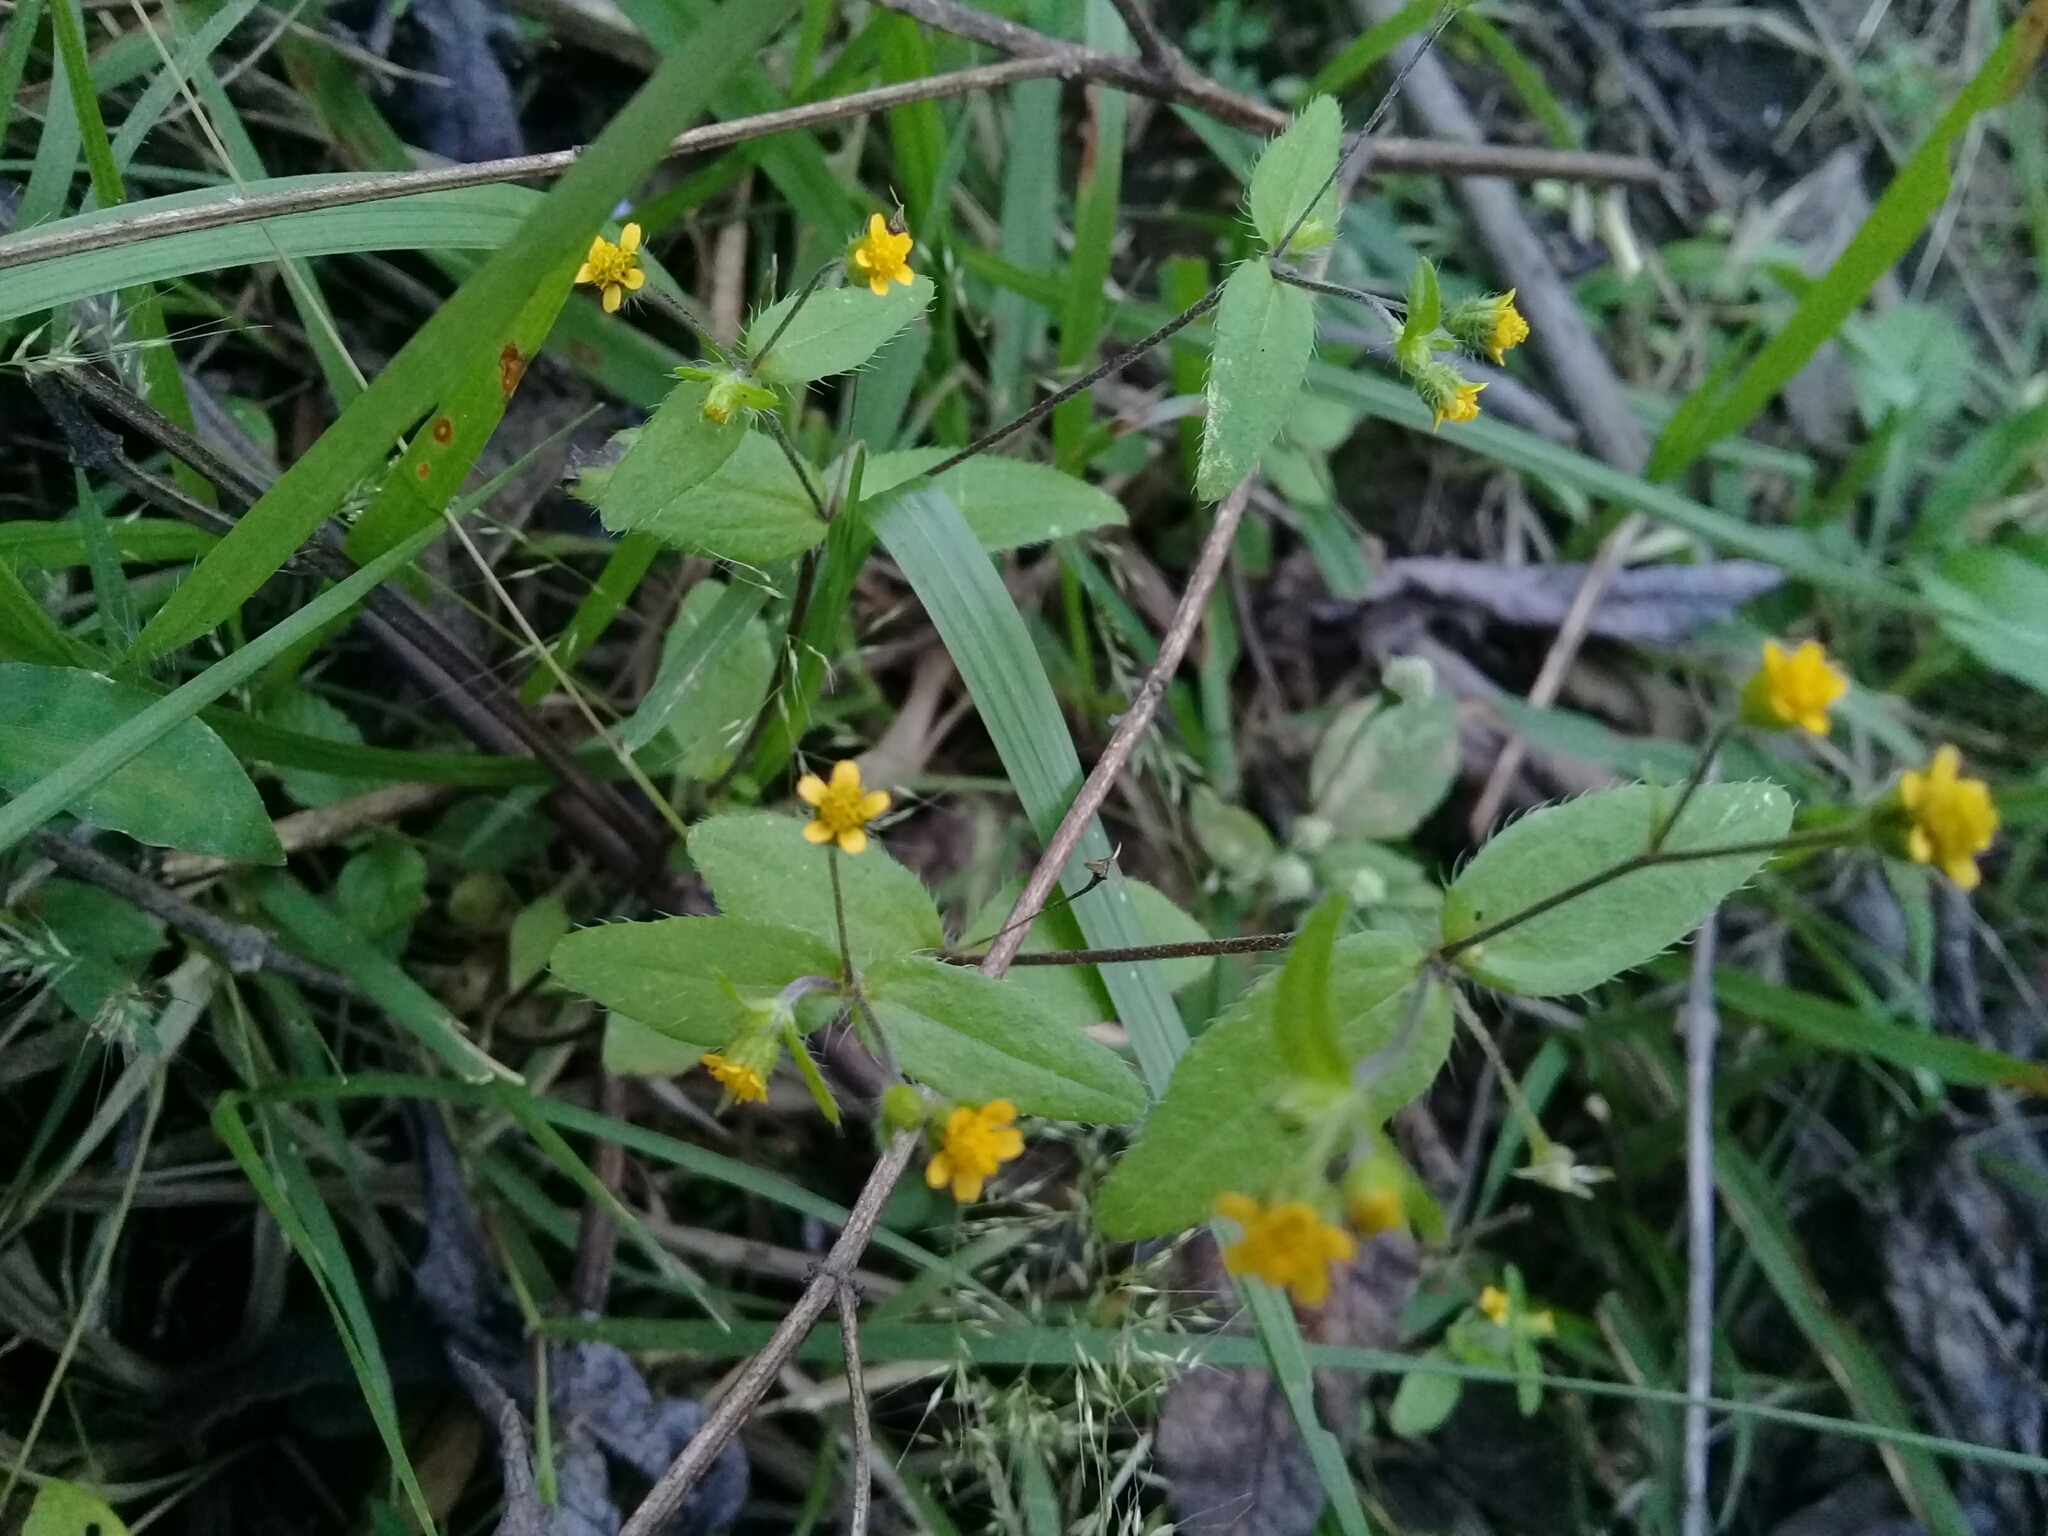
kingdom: Plantae
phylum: Tracheophyta
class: Magnoliopsida
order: Asterales
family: Asteraceae
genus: Jaegeria
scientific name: Jaegeria hirta
